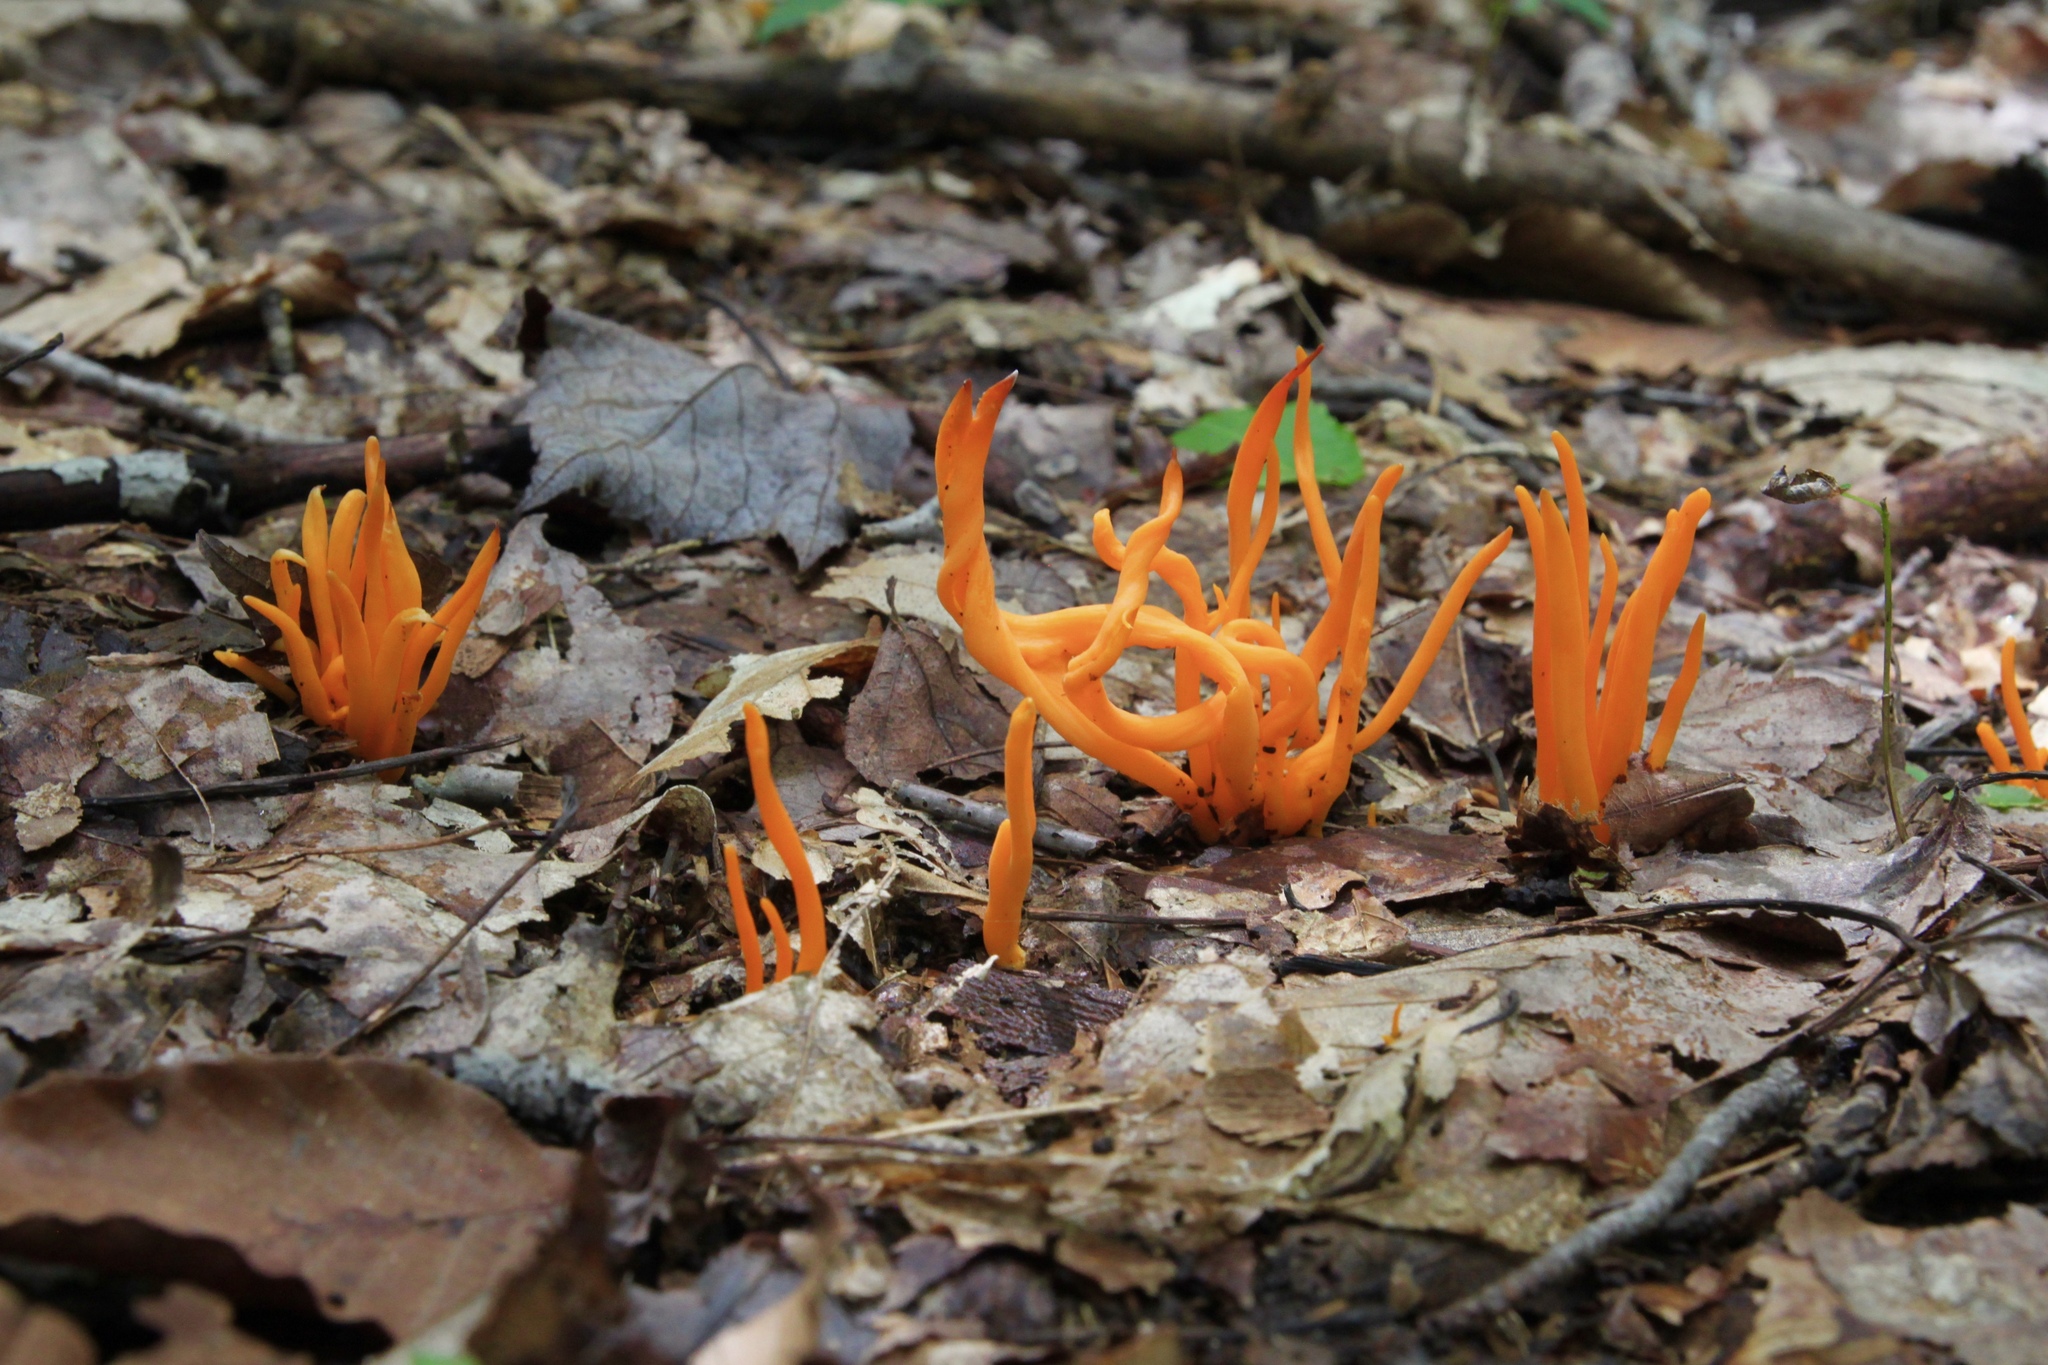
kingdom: Fungi
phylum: Basidiomycota
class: Agaricomycetes
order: Agaricales
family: Clavariaceae
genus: Clavulinopsis
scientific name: Clavulinopsis aurantiocinnabarina
